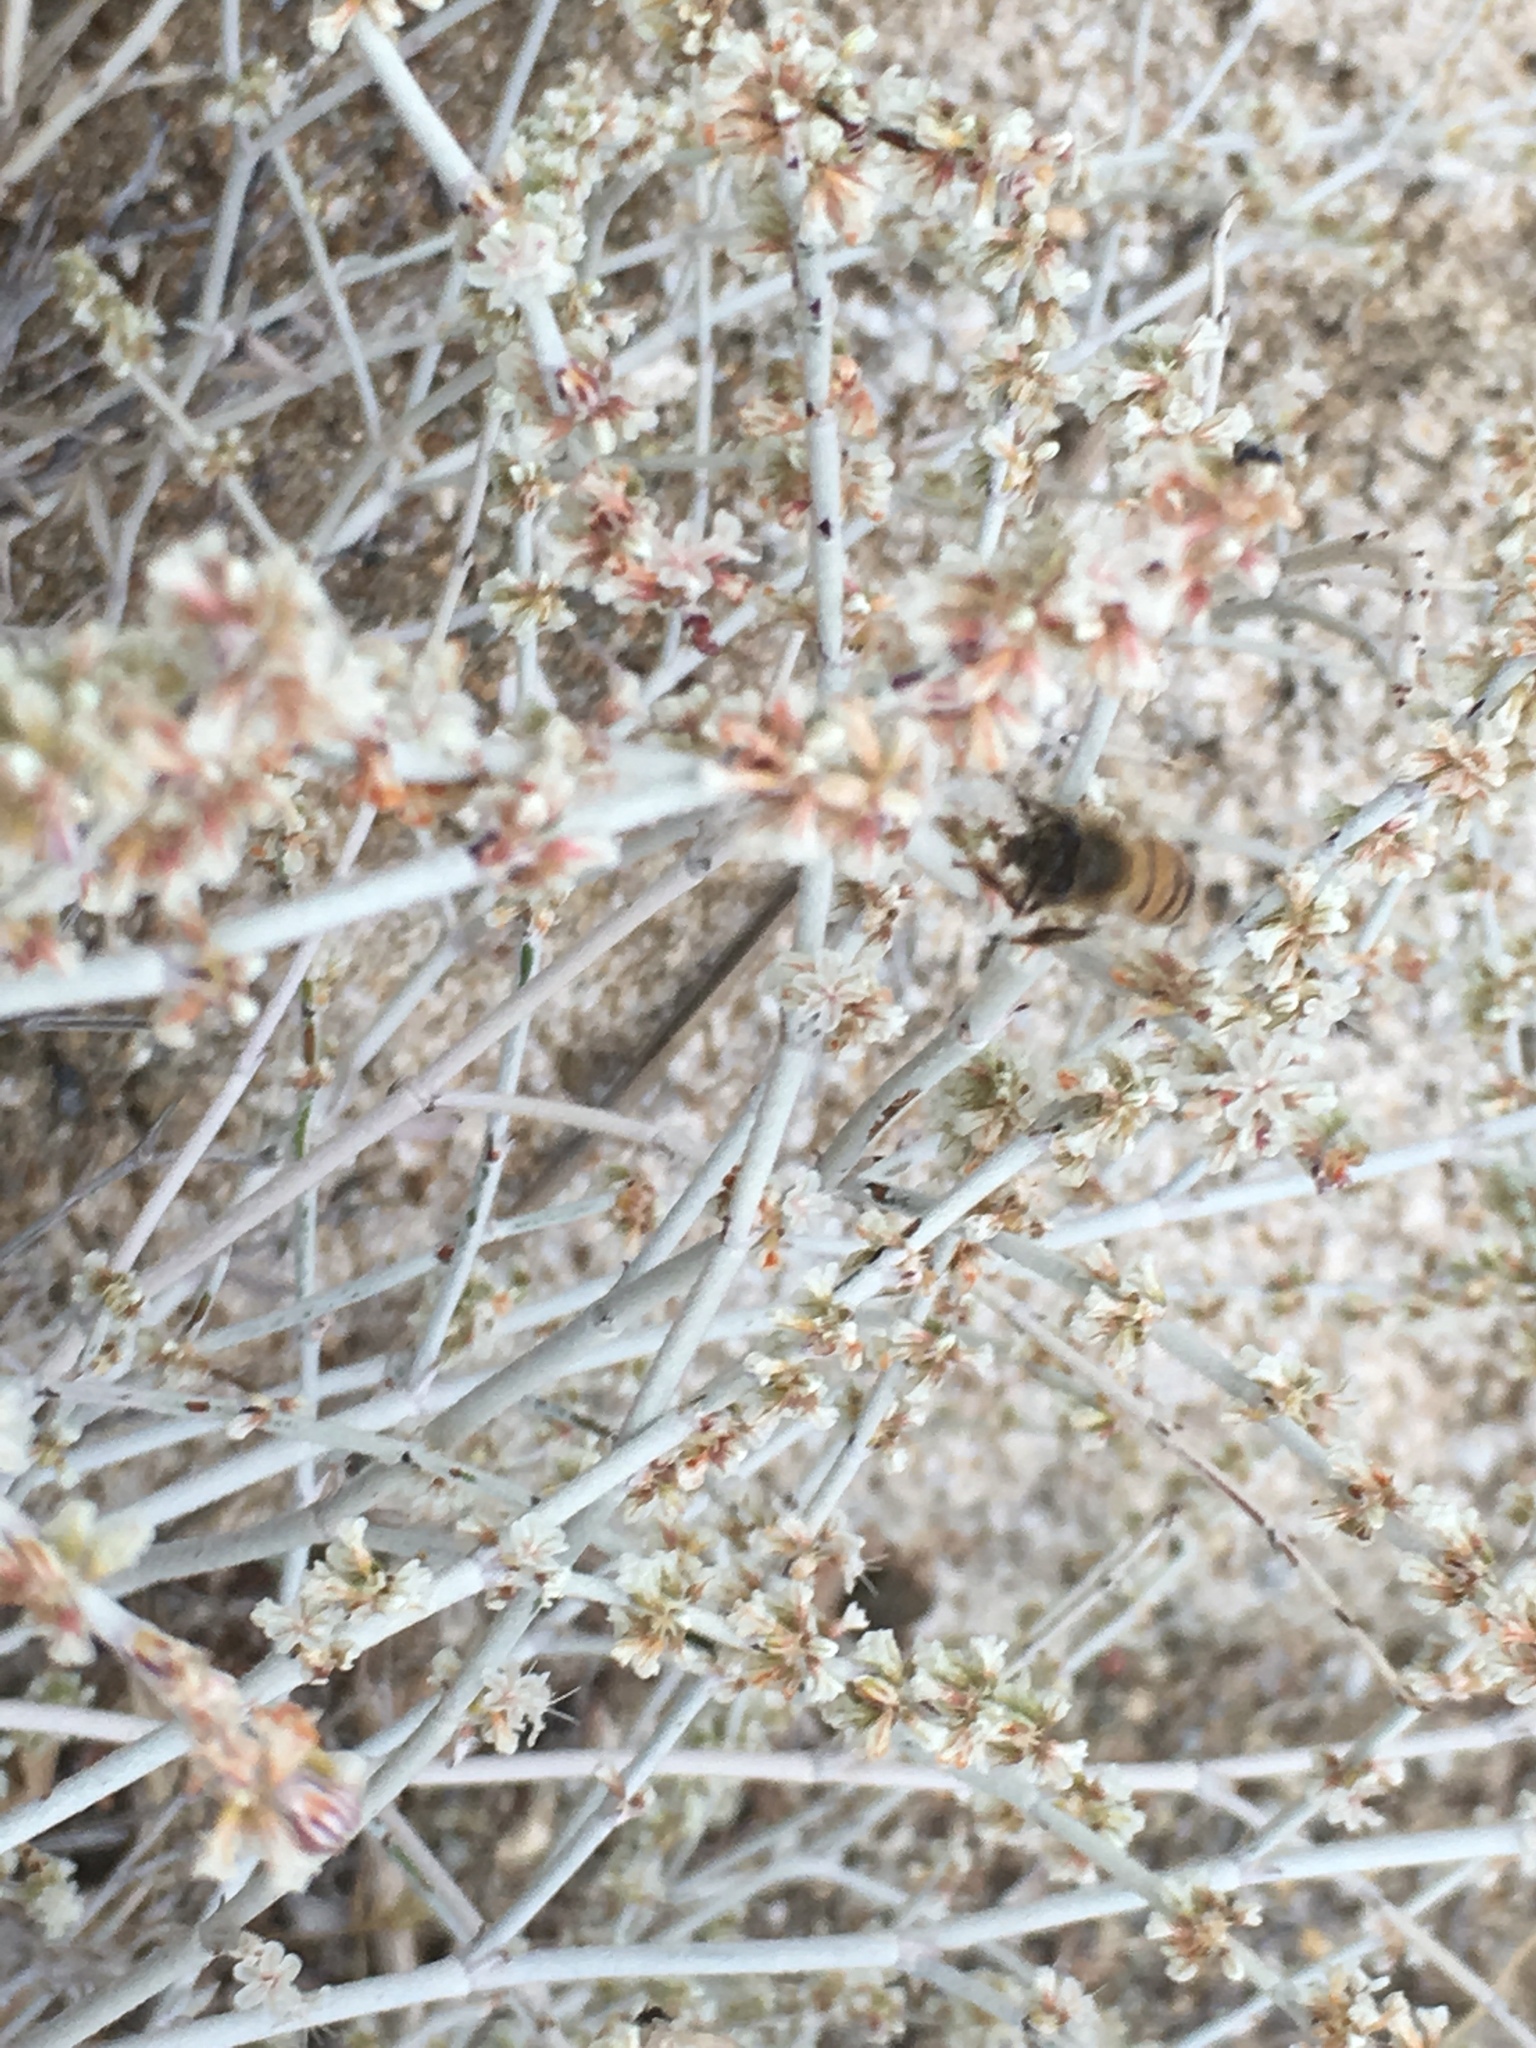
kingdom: Animalia
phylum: Arthropoda
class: Insecta
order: Hymenoptera
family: Apidae
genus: Apis
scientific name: Apis mellifera
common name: Honey bee
